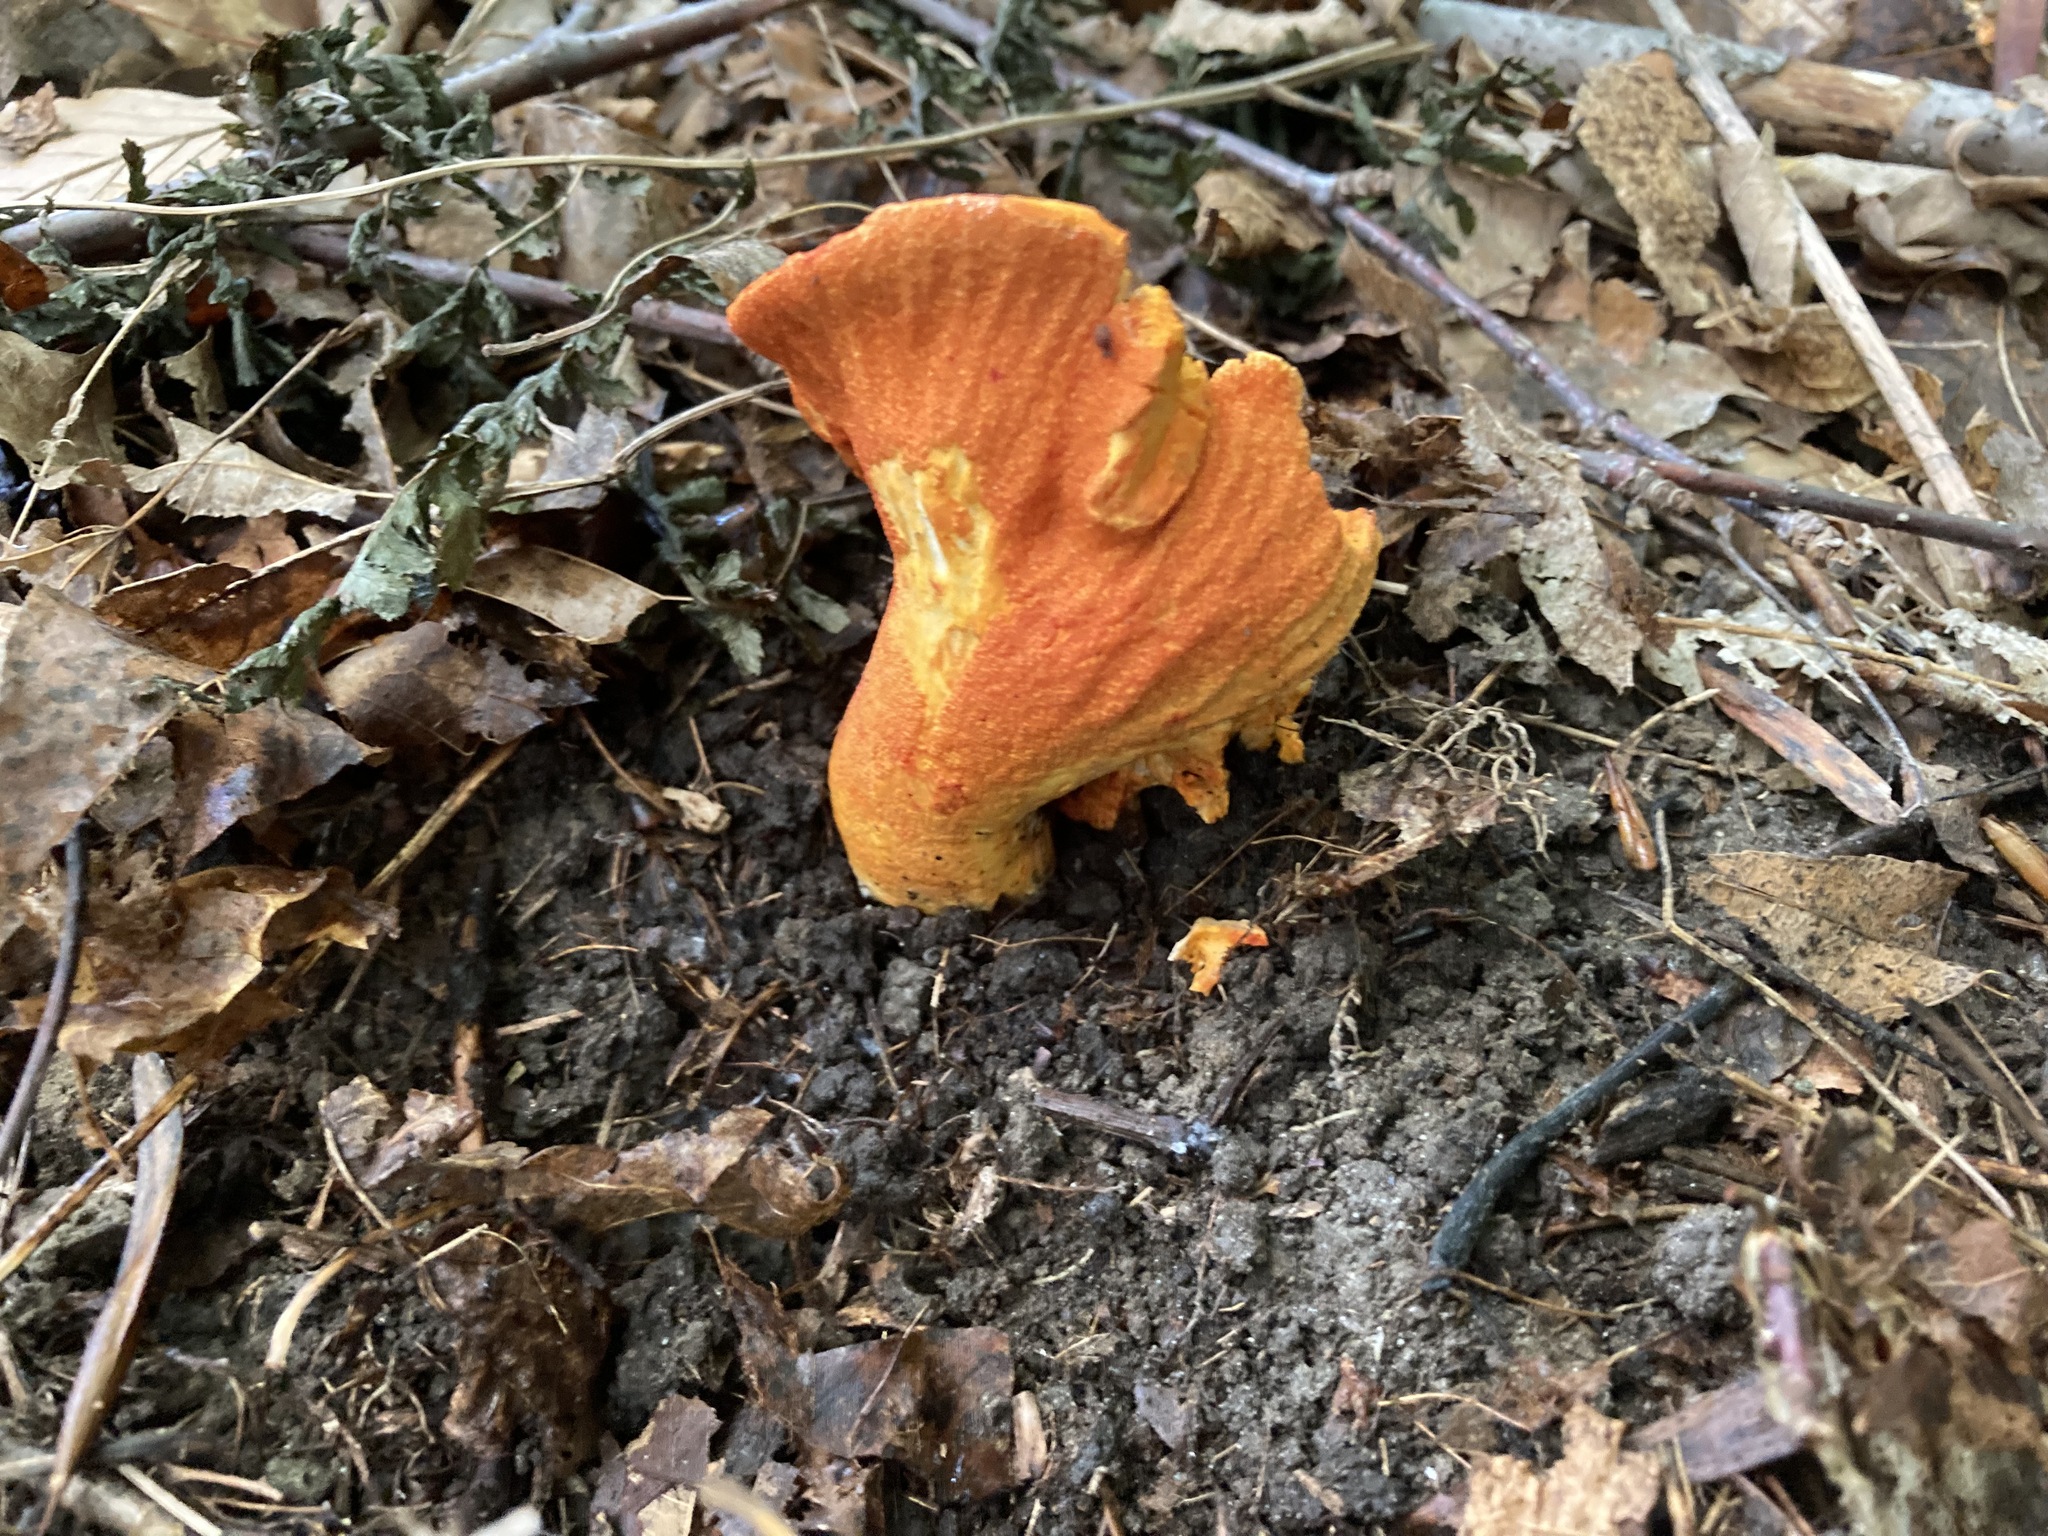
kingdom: Fungi
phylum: Ascomycota
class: Sordariomycetes
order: Hypocreales
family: Hypocreaceae
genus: Hypomyces
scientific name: Hypomyces lactifluorum
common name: Lobster mushroom
